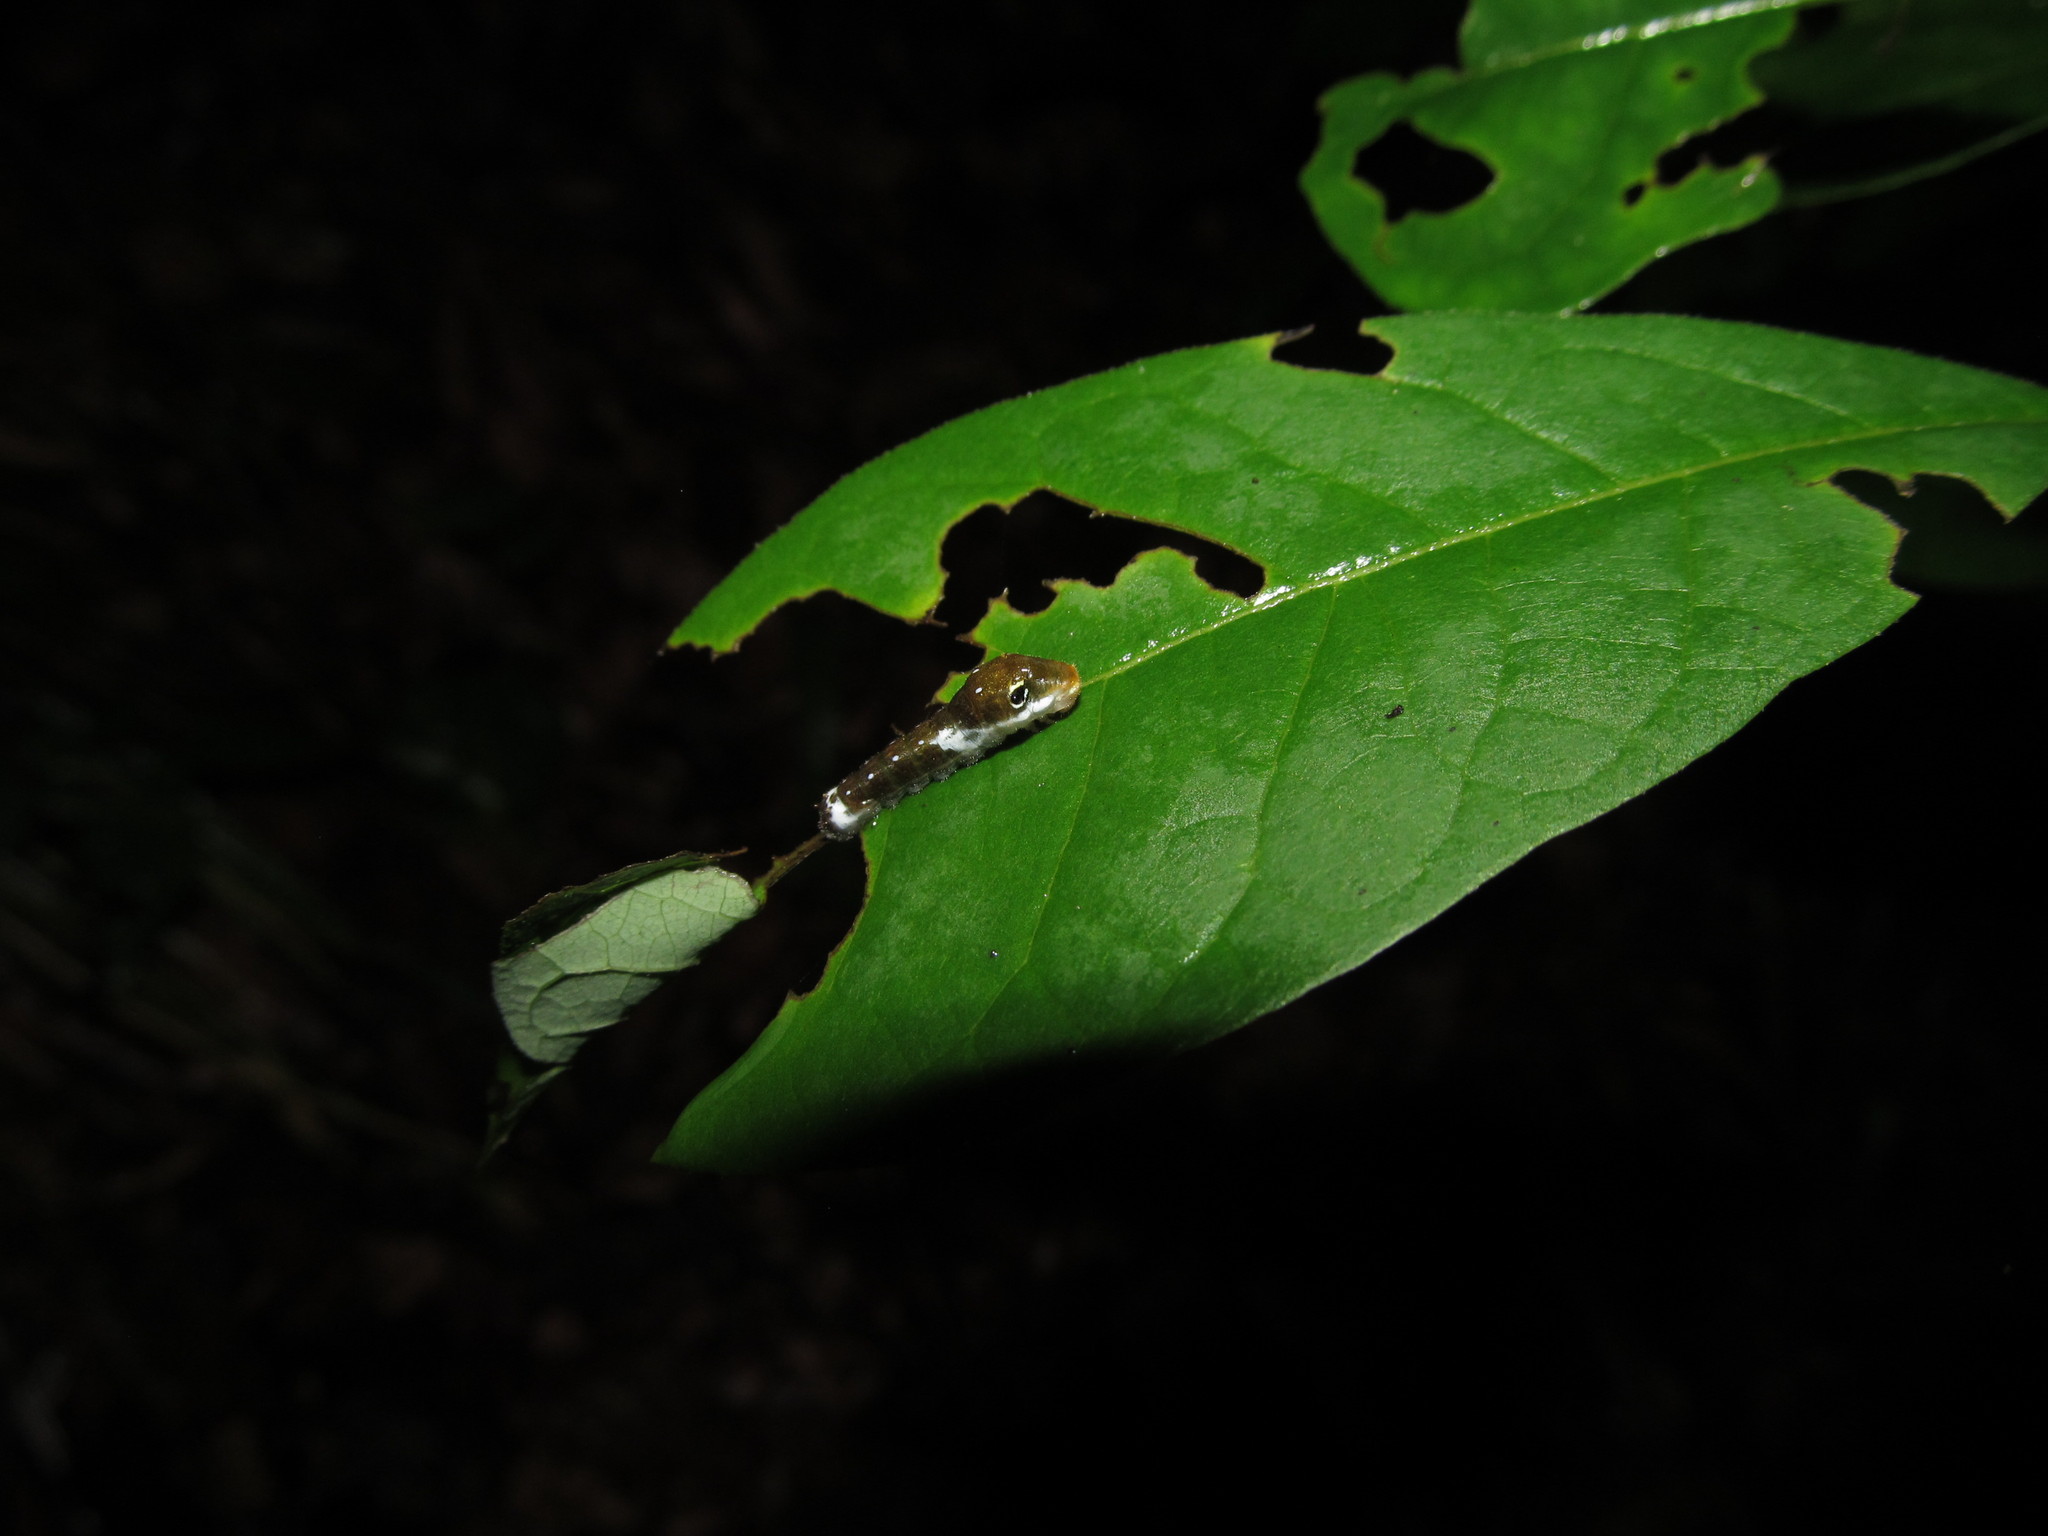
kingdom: Animalia
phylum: Arthropoda
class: Insecta
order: Lepidoptera
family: Papilionidae
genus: Papilio
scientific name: Papilio troilus
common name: Spicebush swallowtail
